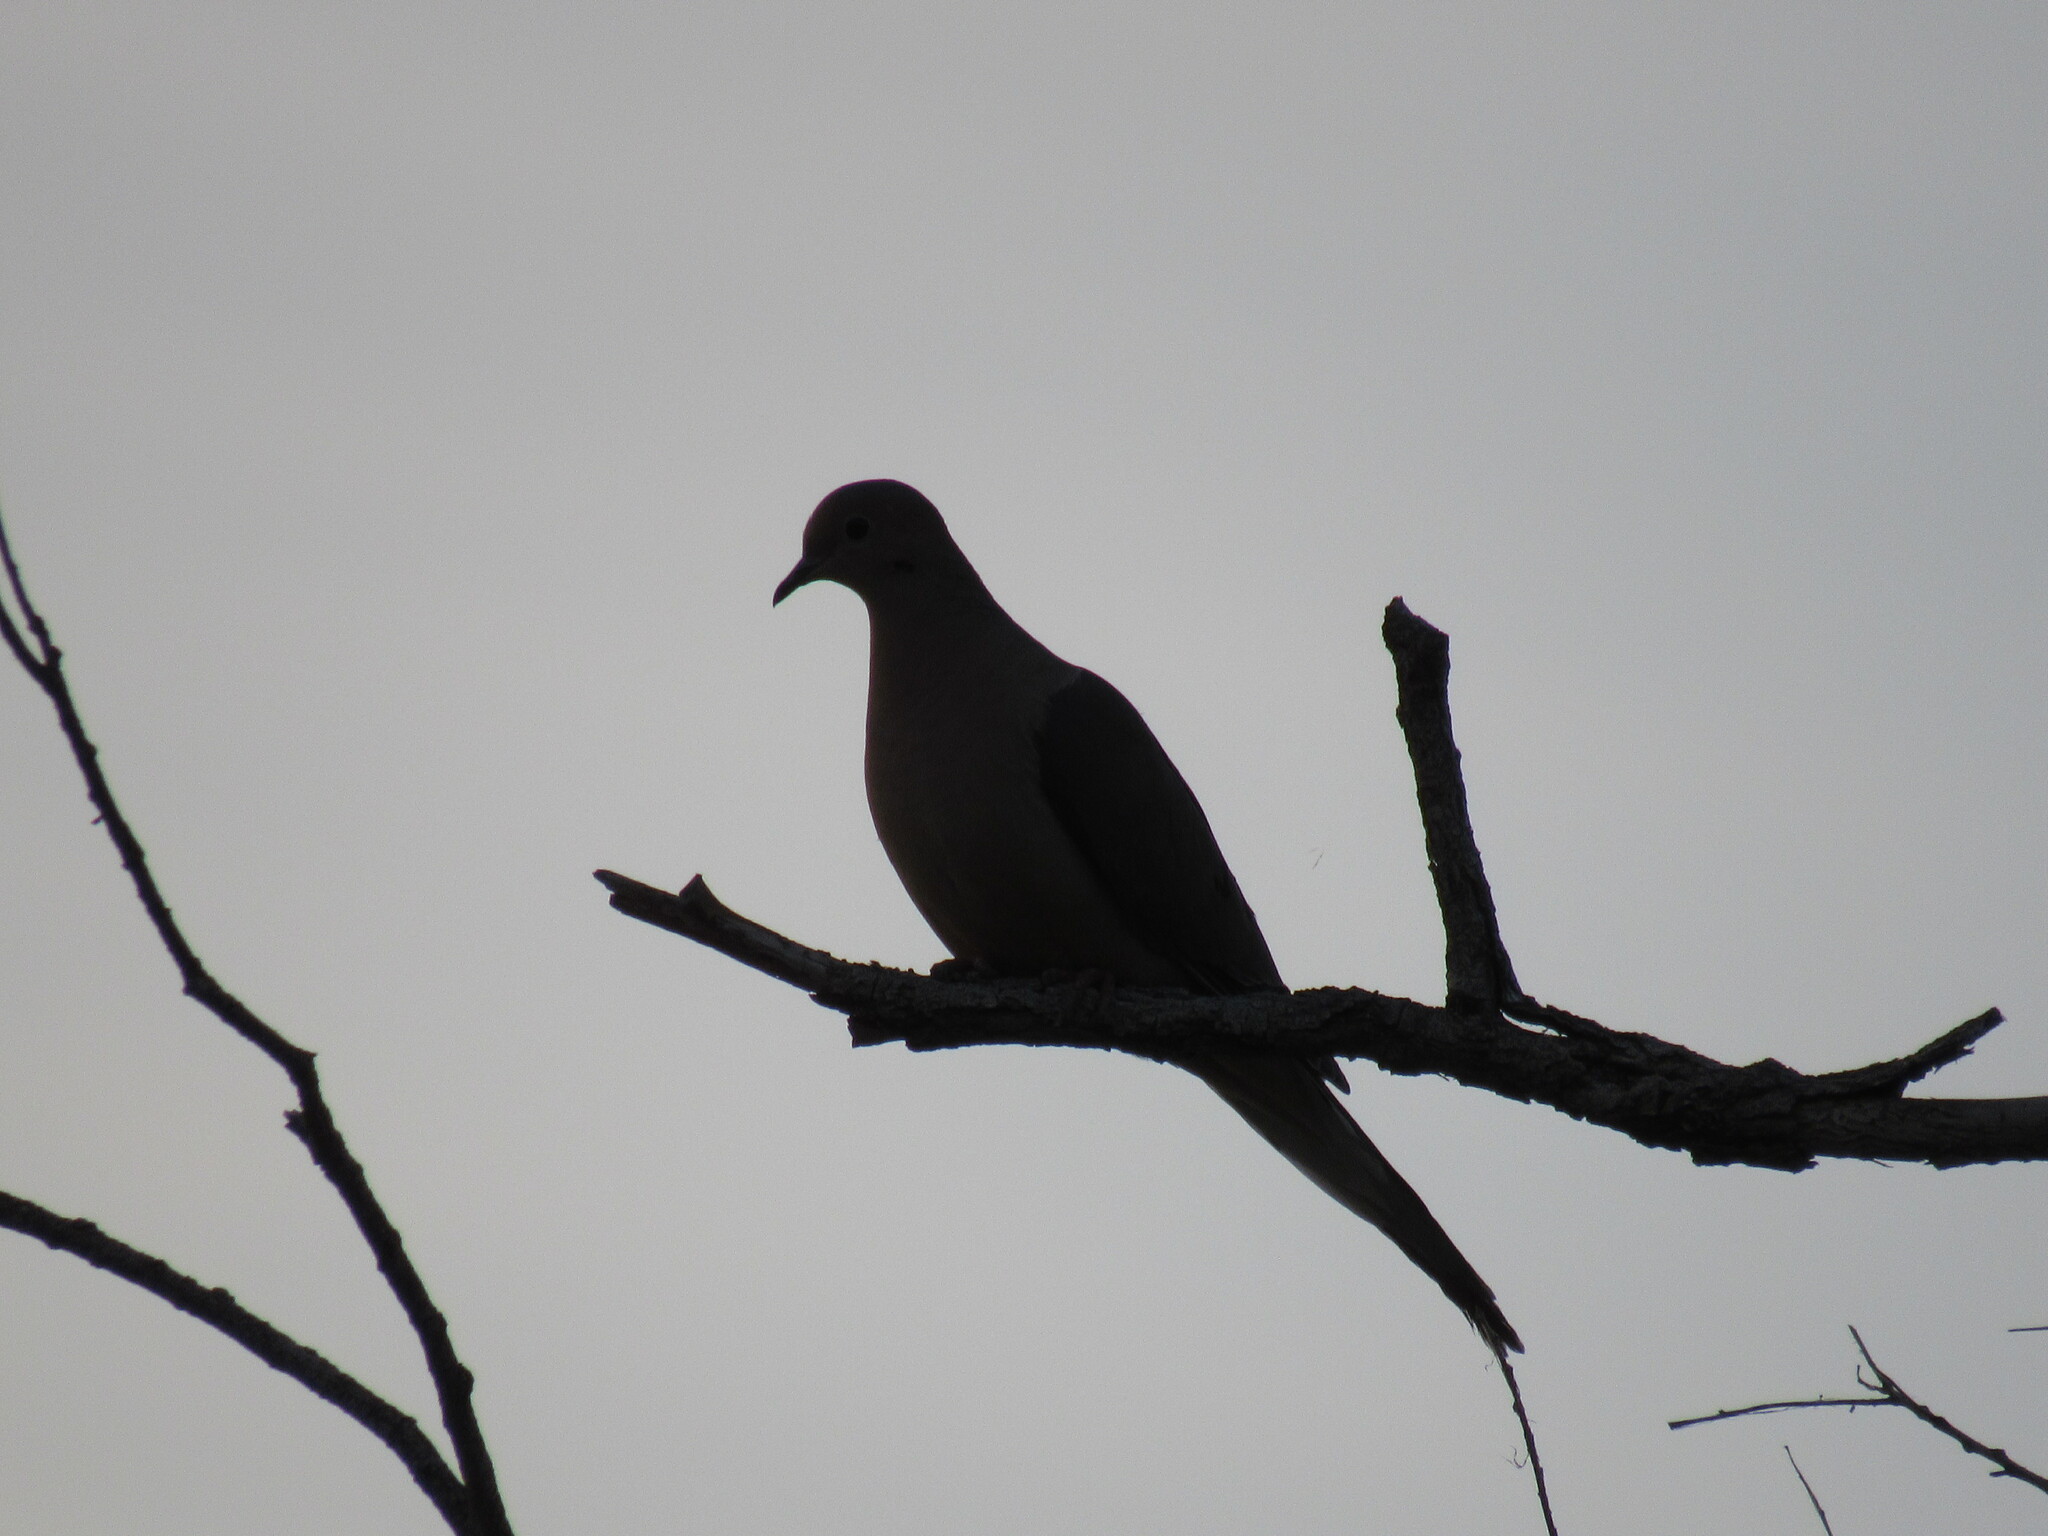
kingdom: Animalia
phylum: Chordata
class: Aves
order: Columbiformes
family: Columbidae
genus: Zenaida
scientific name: Zenaida macroura
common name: Mourning dove
